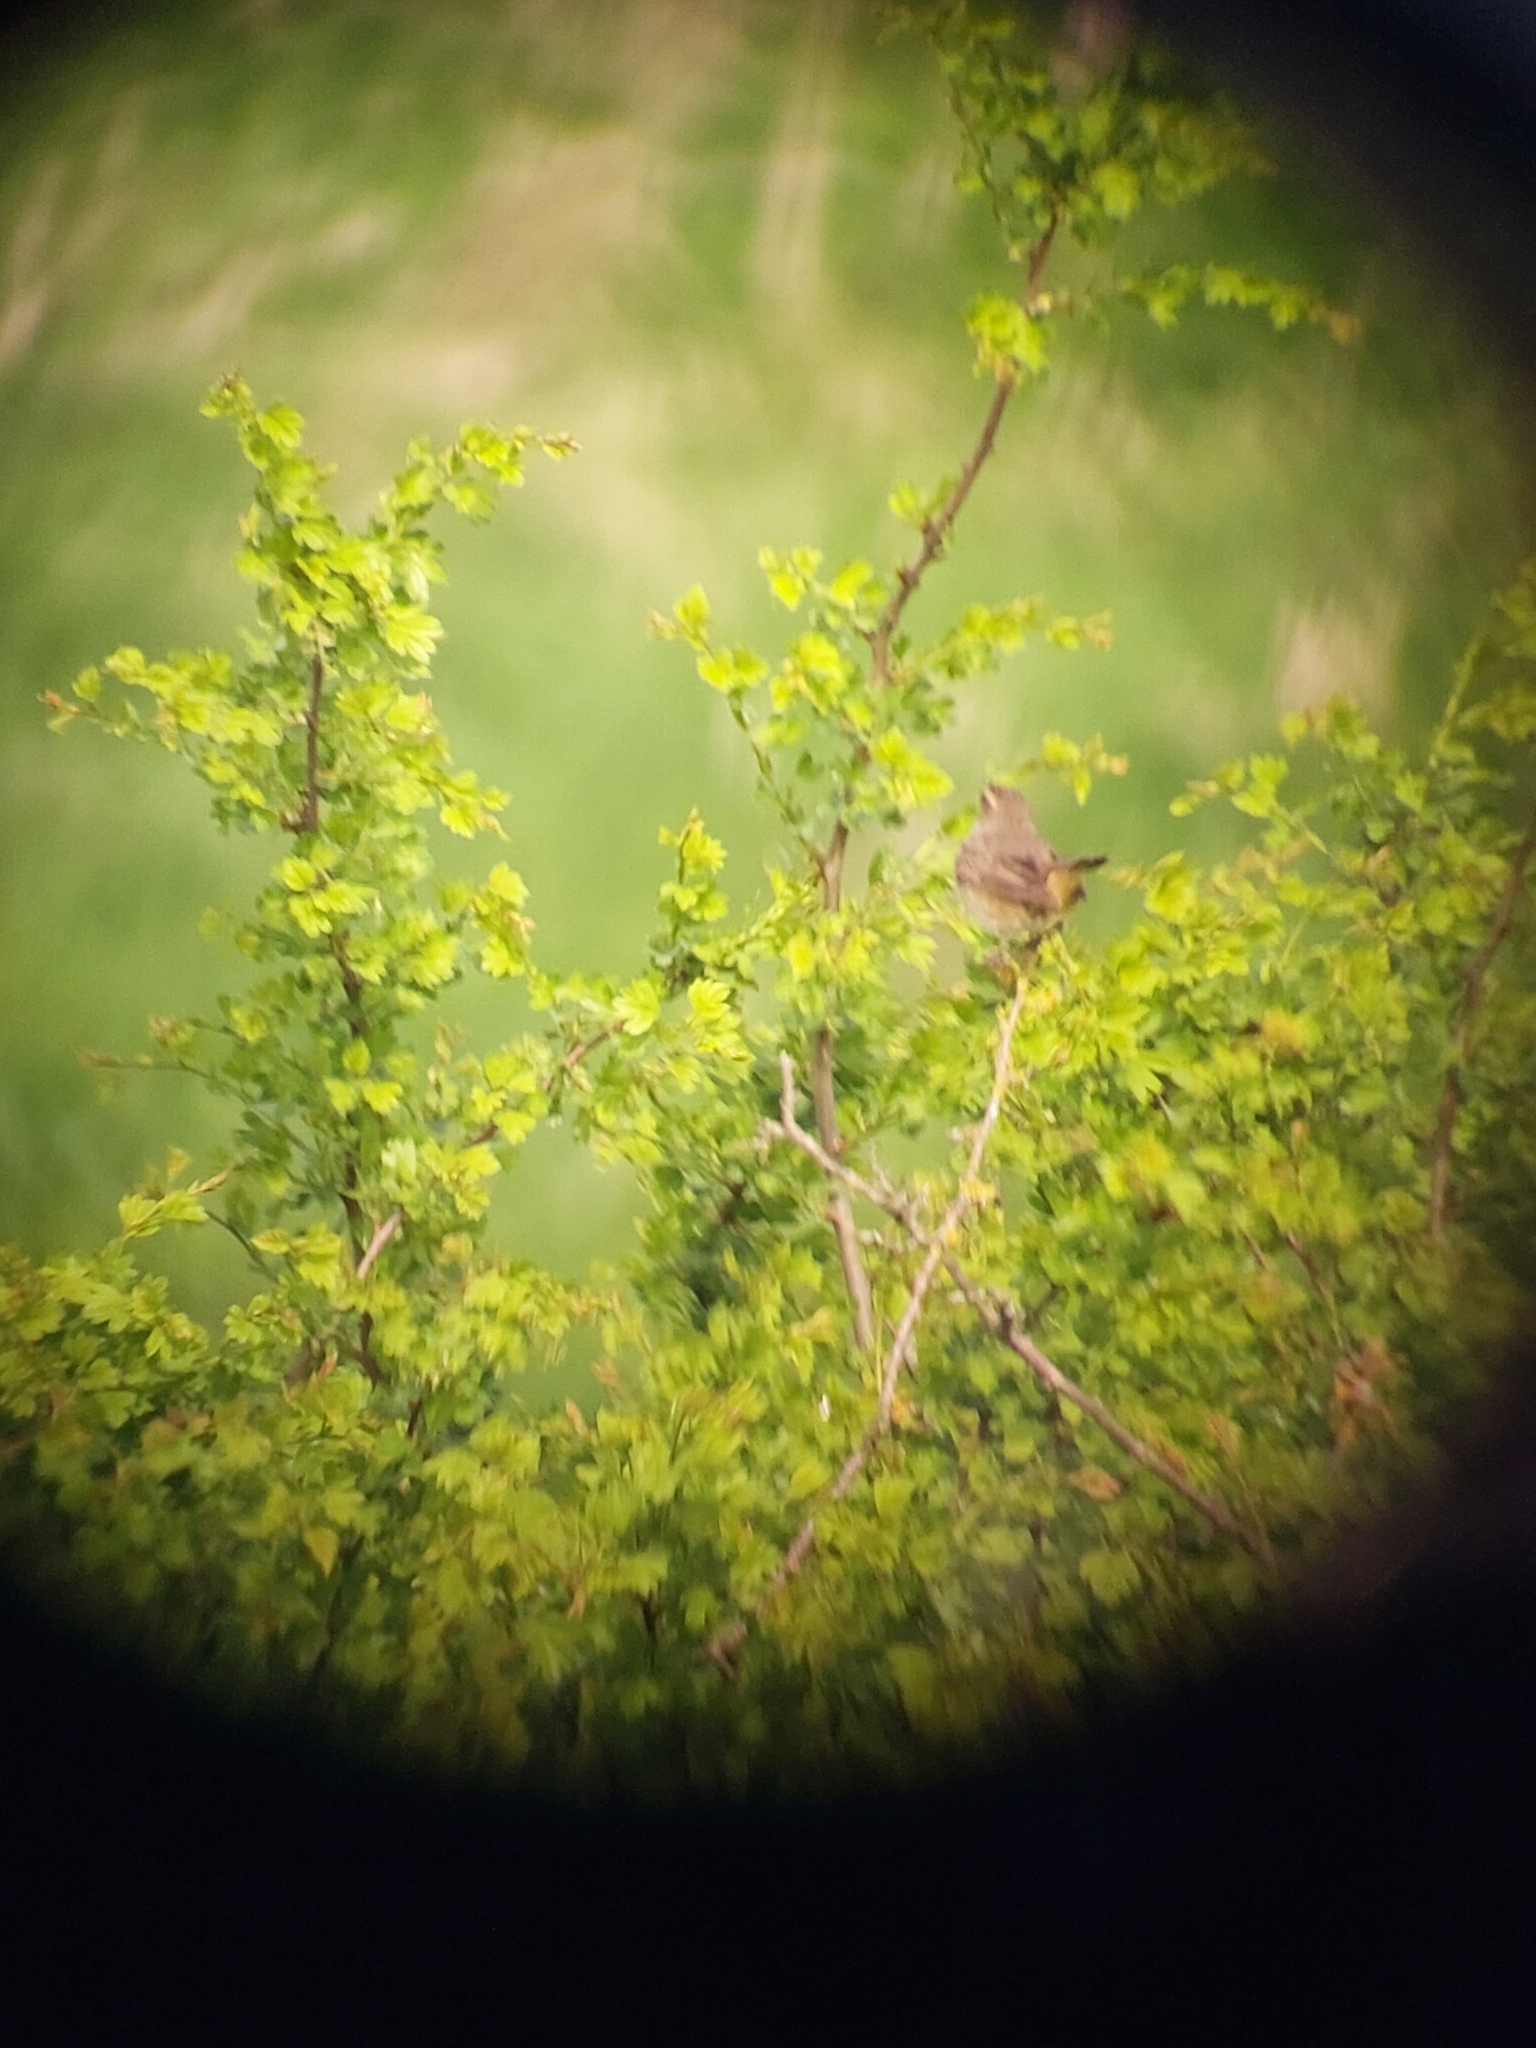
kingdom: Animalia
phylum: Chordata
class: Aves
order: Passeriformes
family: Muscicapidae
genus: Luscinia
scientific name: Luscinia svecica
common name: Bluethroat
